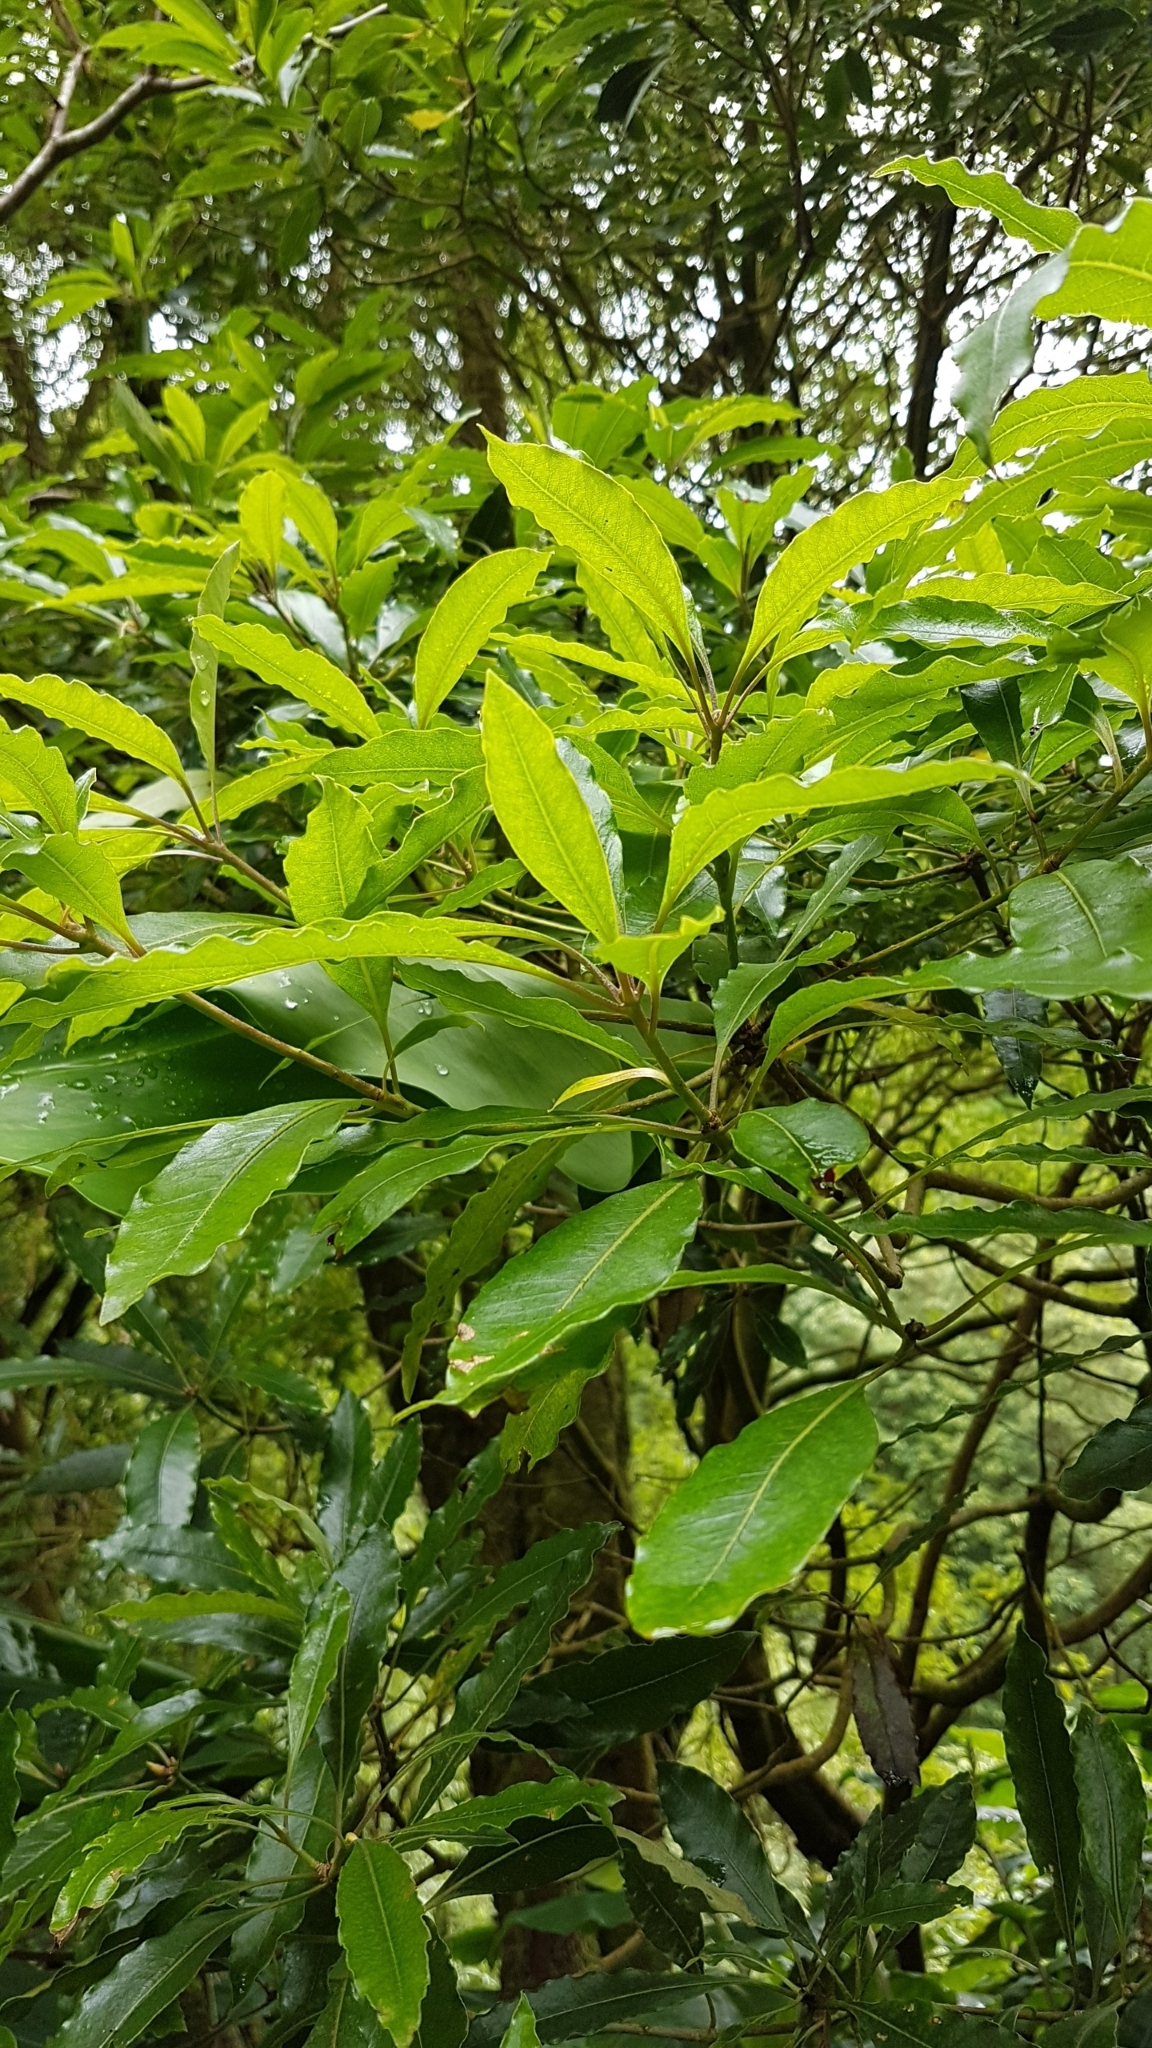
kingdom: Plantae
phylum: Tracheophyta
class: Magnoliopsida
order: Apiales
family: Pittosporaceae
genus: Pittosporum
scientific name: Pittosporum undulatum
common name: Australian cheesewood
